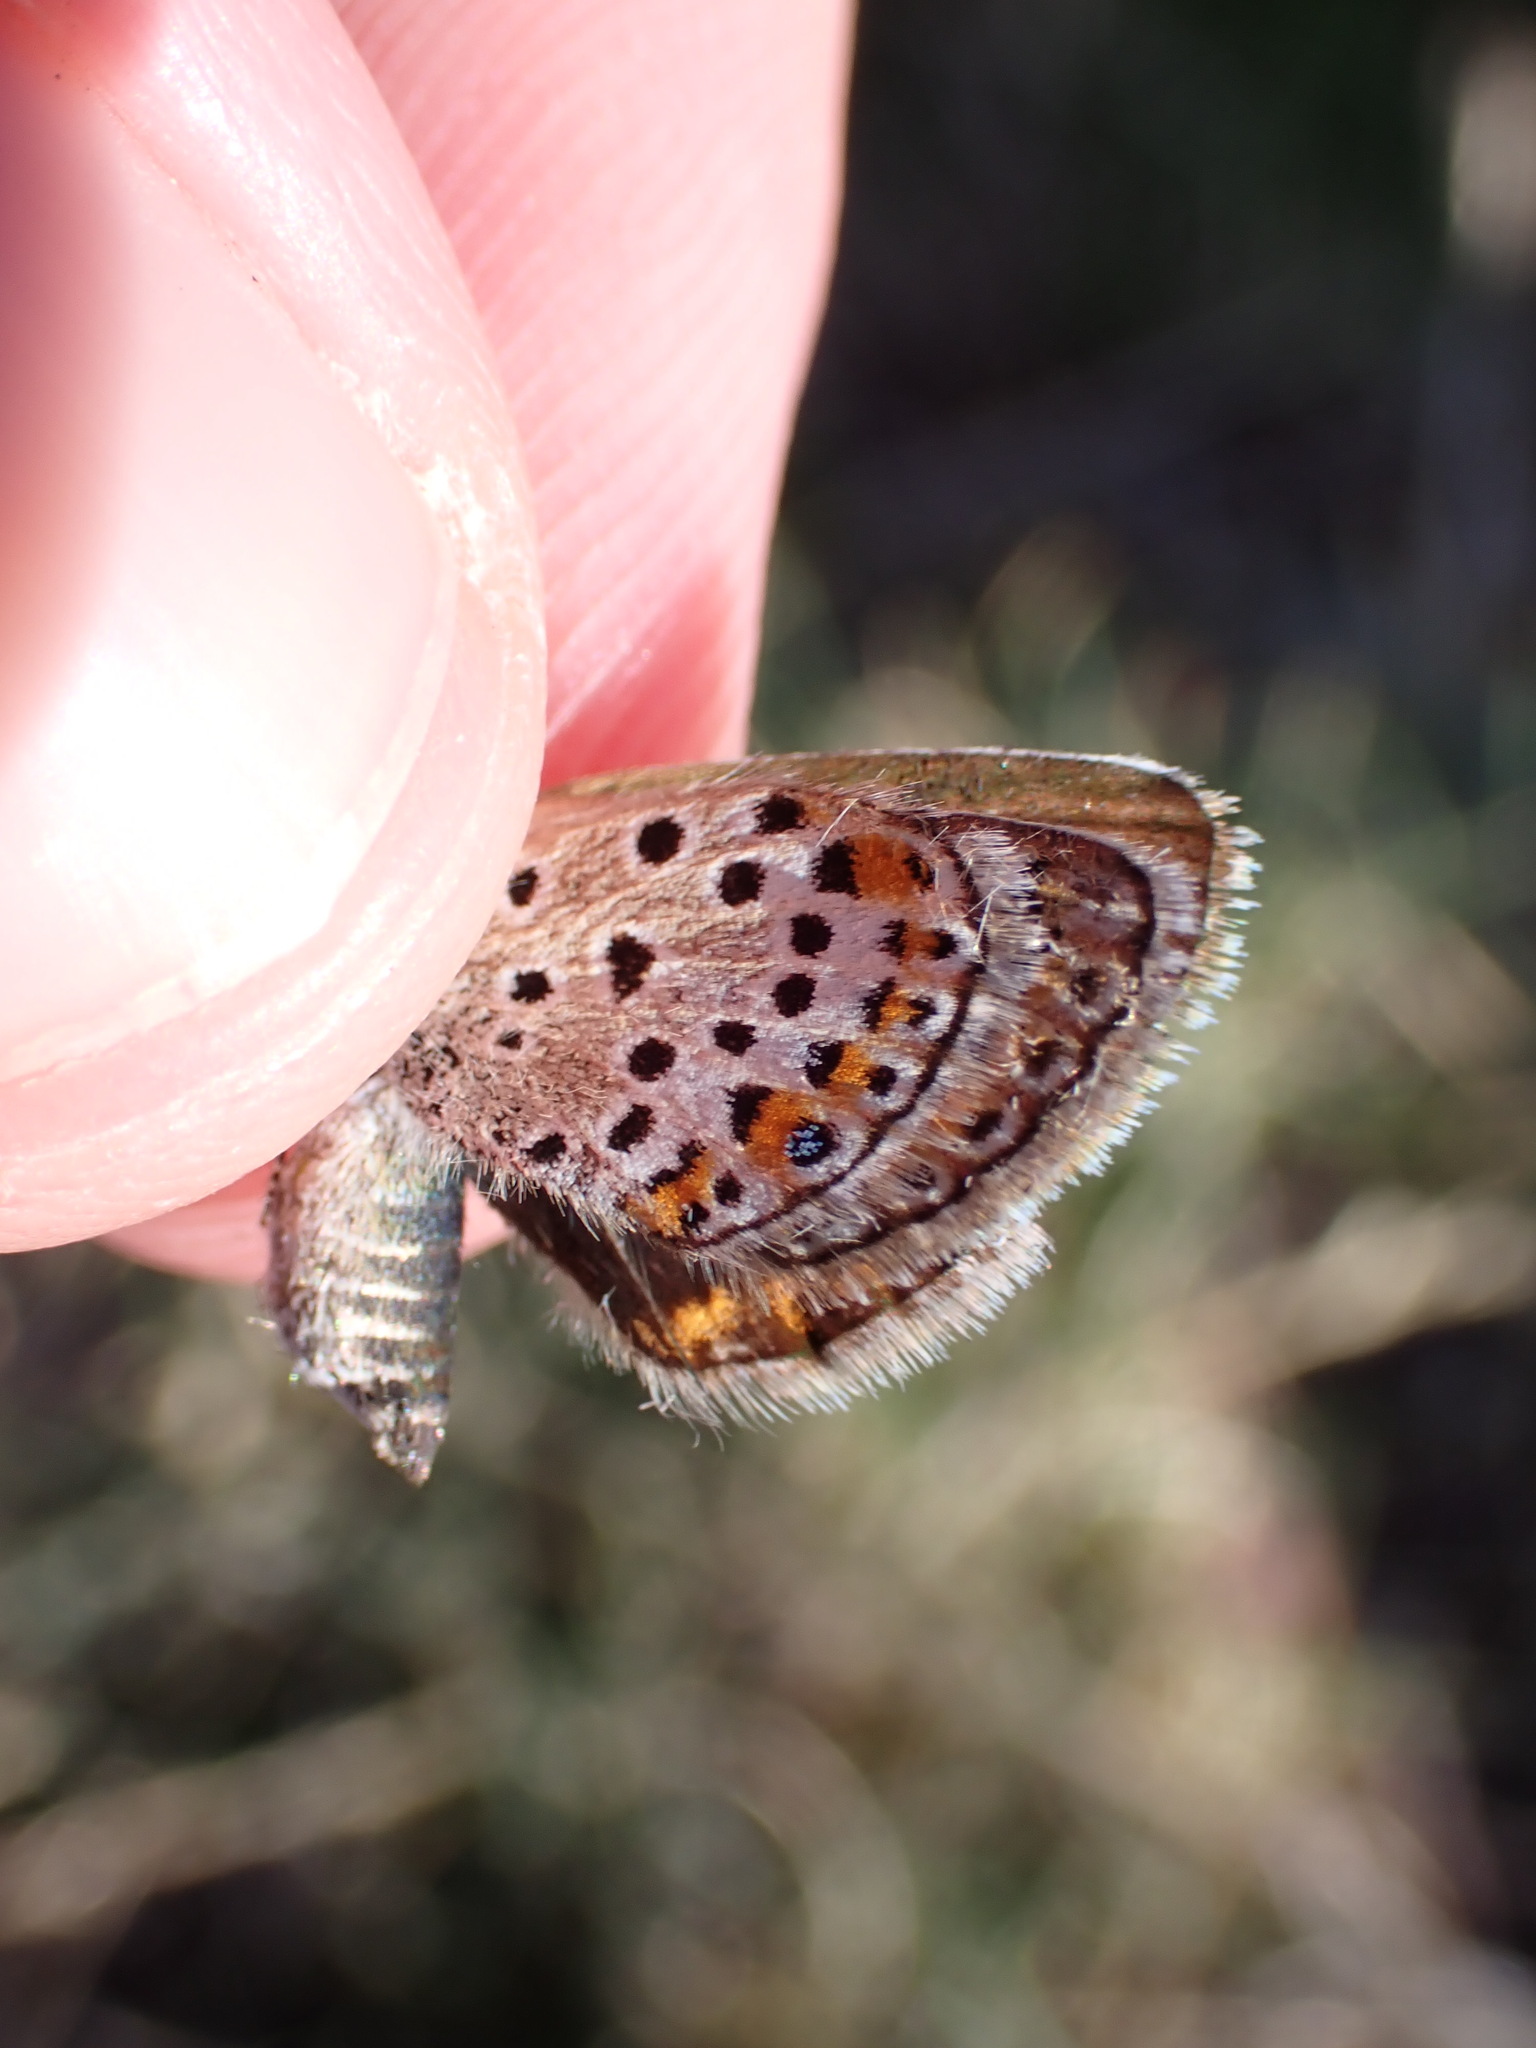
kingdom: Animalia
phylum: Arthropoda
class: Insecta
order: Lepidoptera
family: Lycaenidae
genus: Plebejus
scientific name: Plebejus argus
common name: Silver-studded blue
